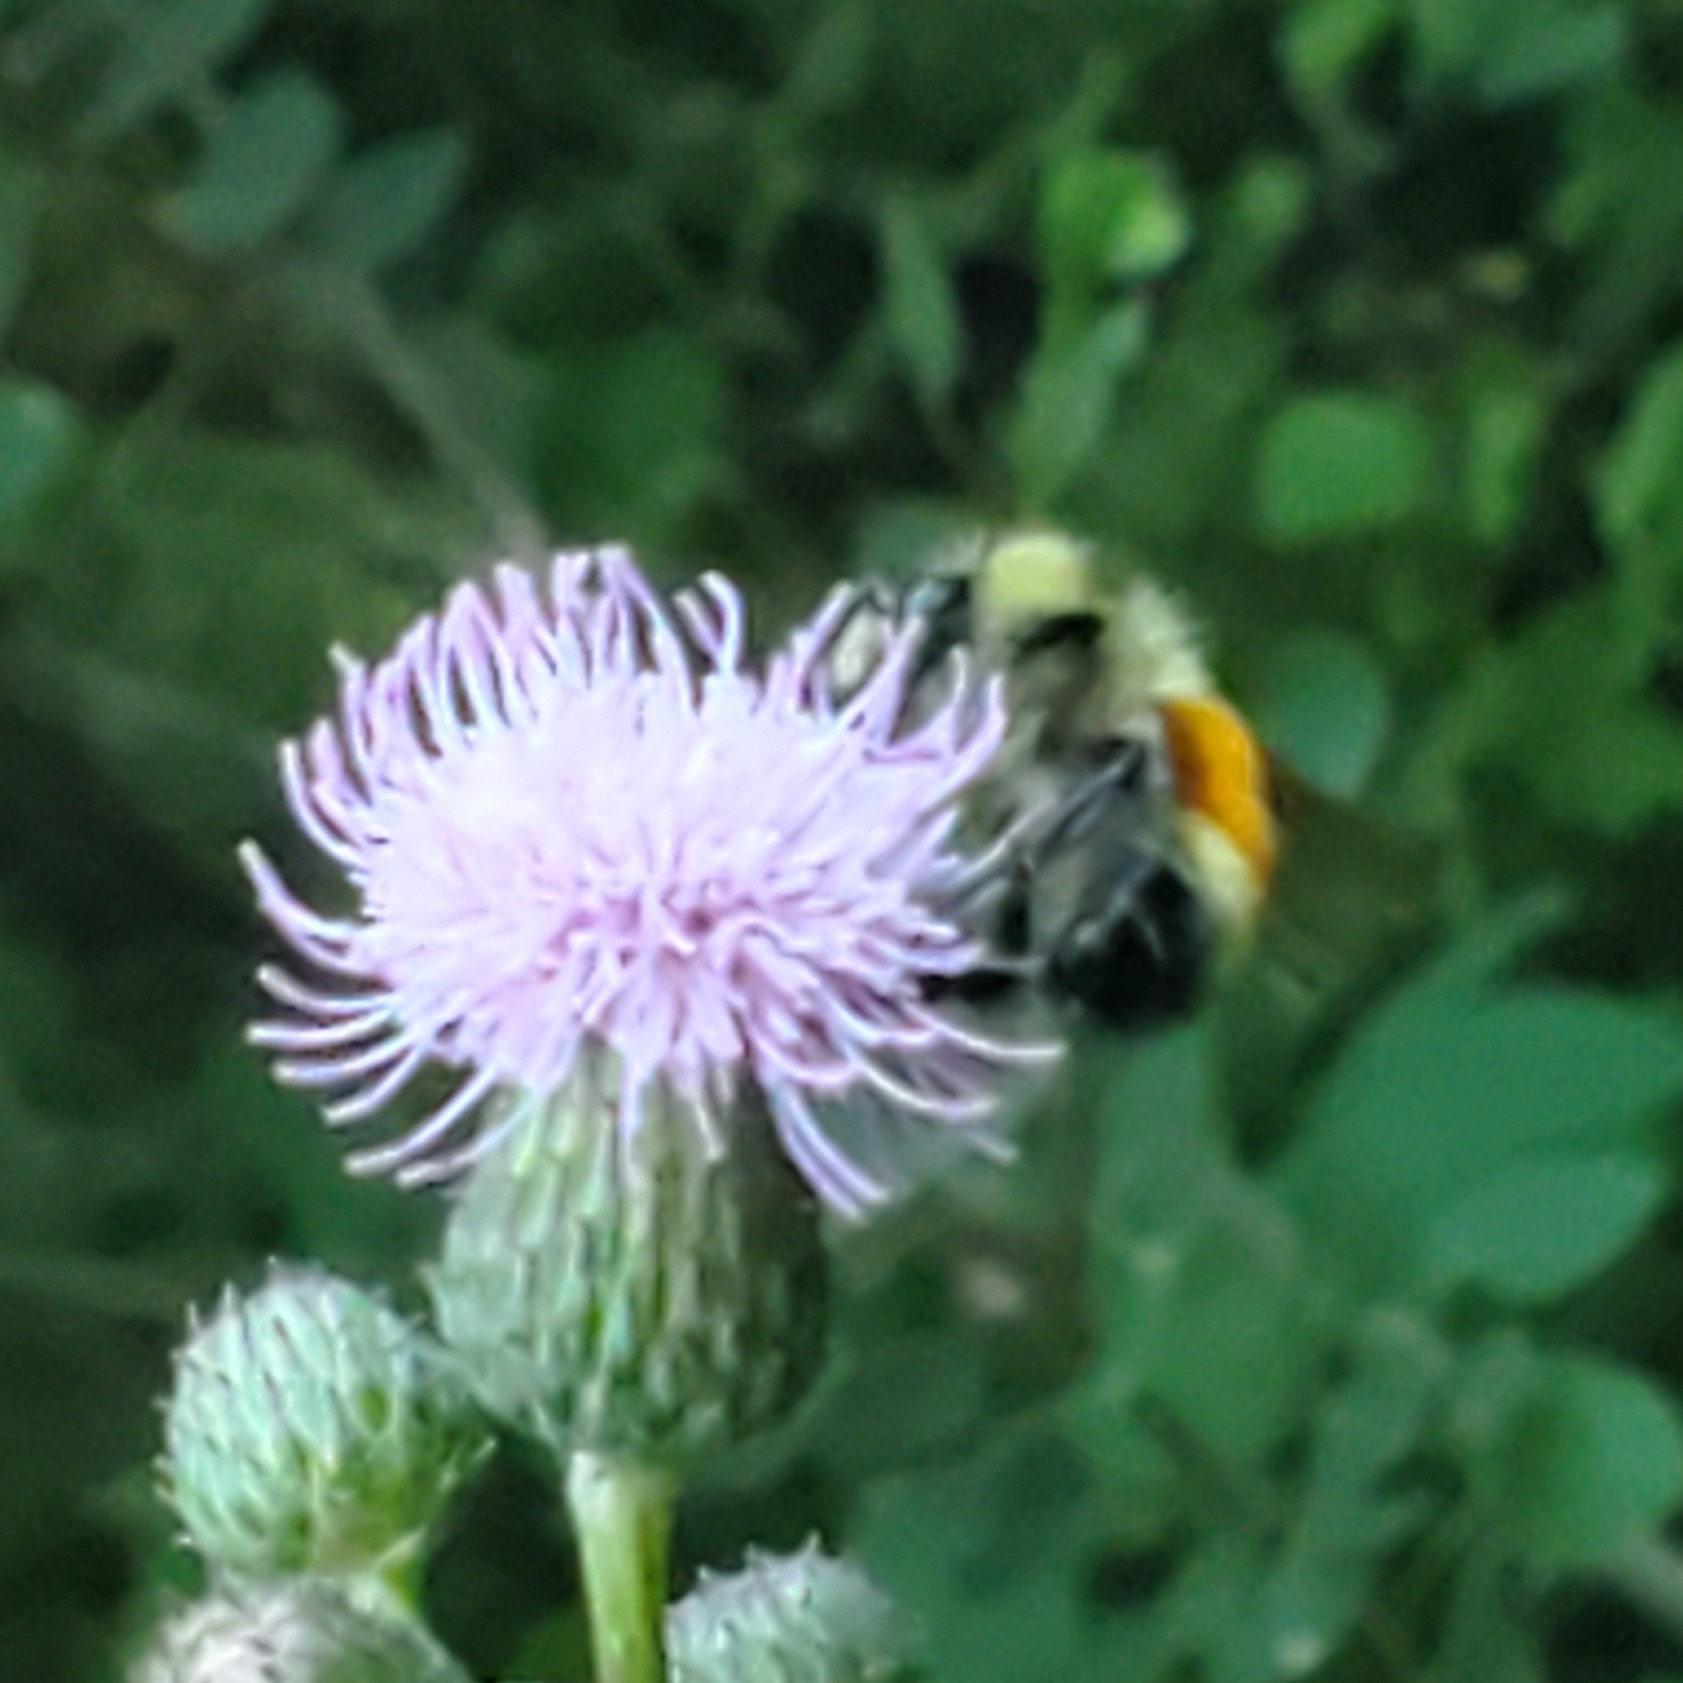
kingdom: Animalia
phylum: Arthropoda
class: Insecta
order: Hymenoptera
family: Apidae
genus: Bombus
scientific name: Bombus ternarius
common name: Tri-colored bumble bee
